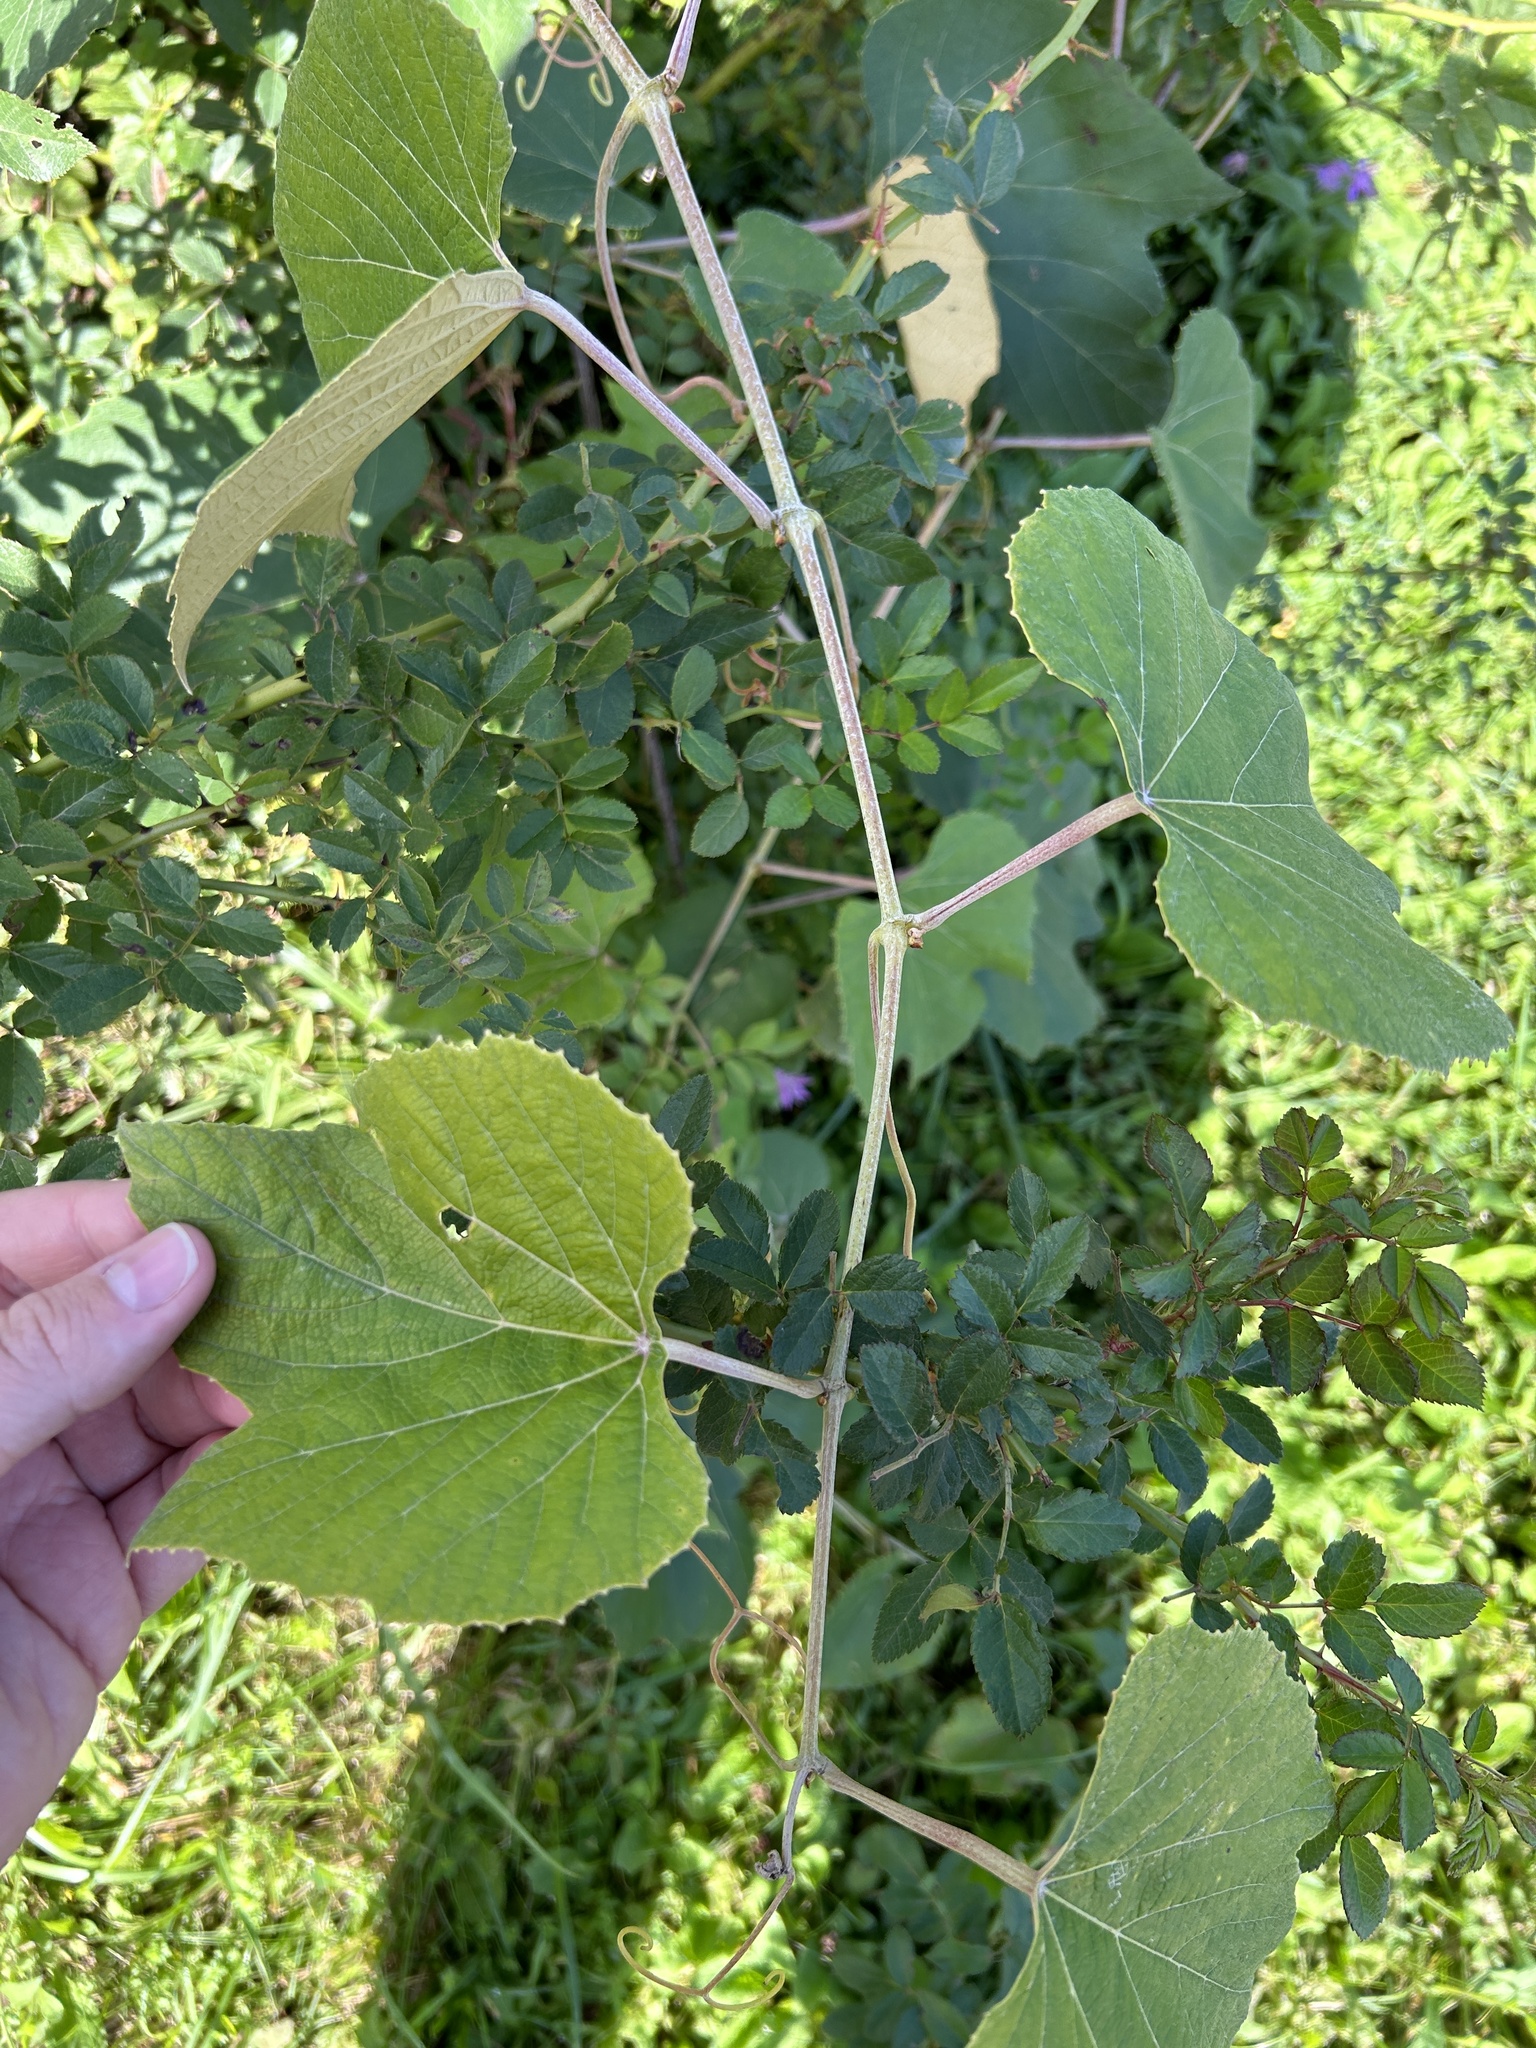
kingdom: Plantae
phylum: Tracheophyta
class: Magnoliopsida
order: Vitales
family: Vitaceae
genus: Vitis
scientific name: Vitis labrusca
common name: Concord grape
